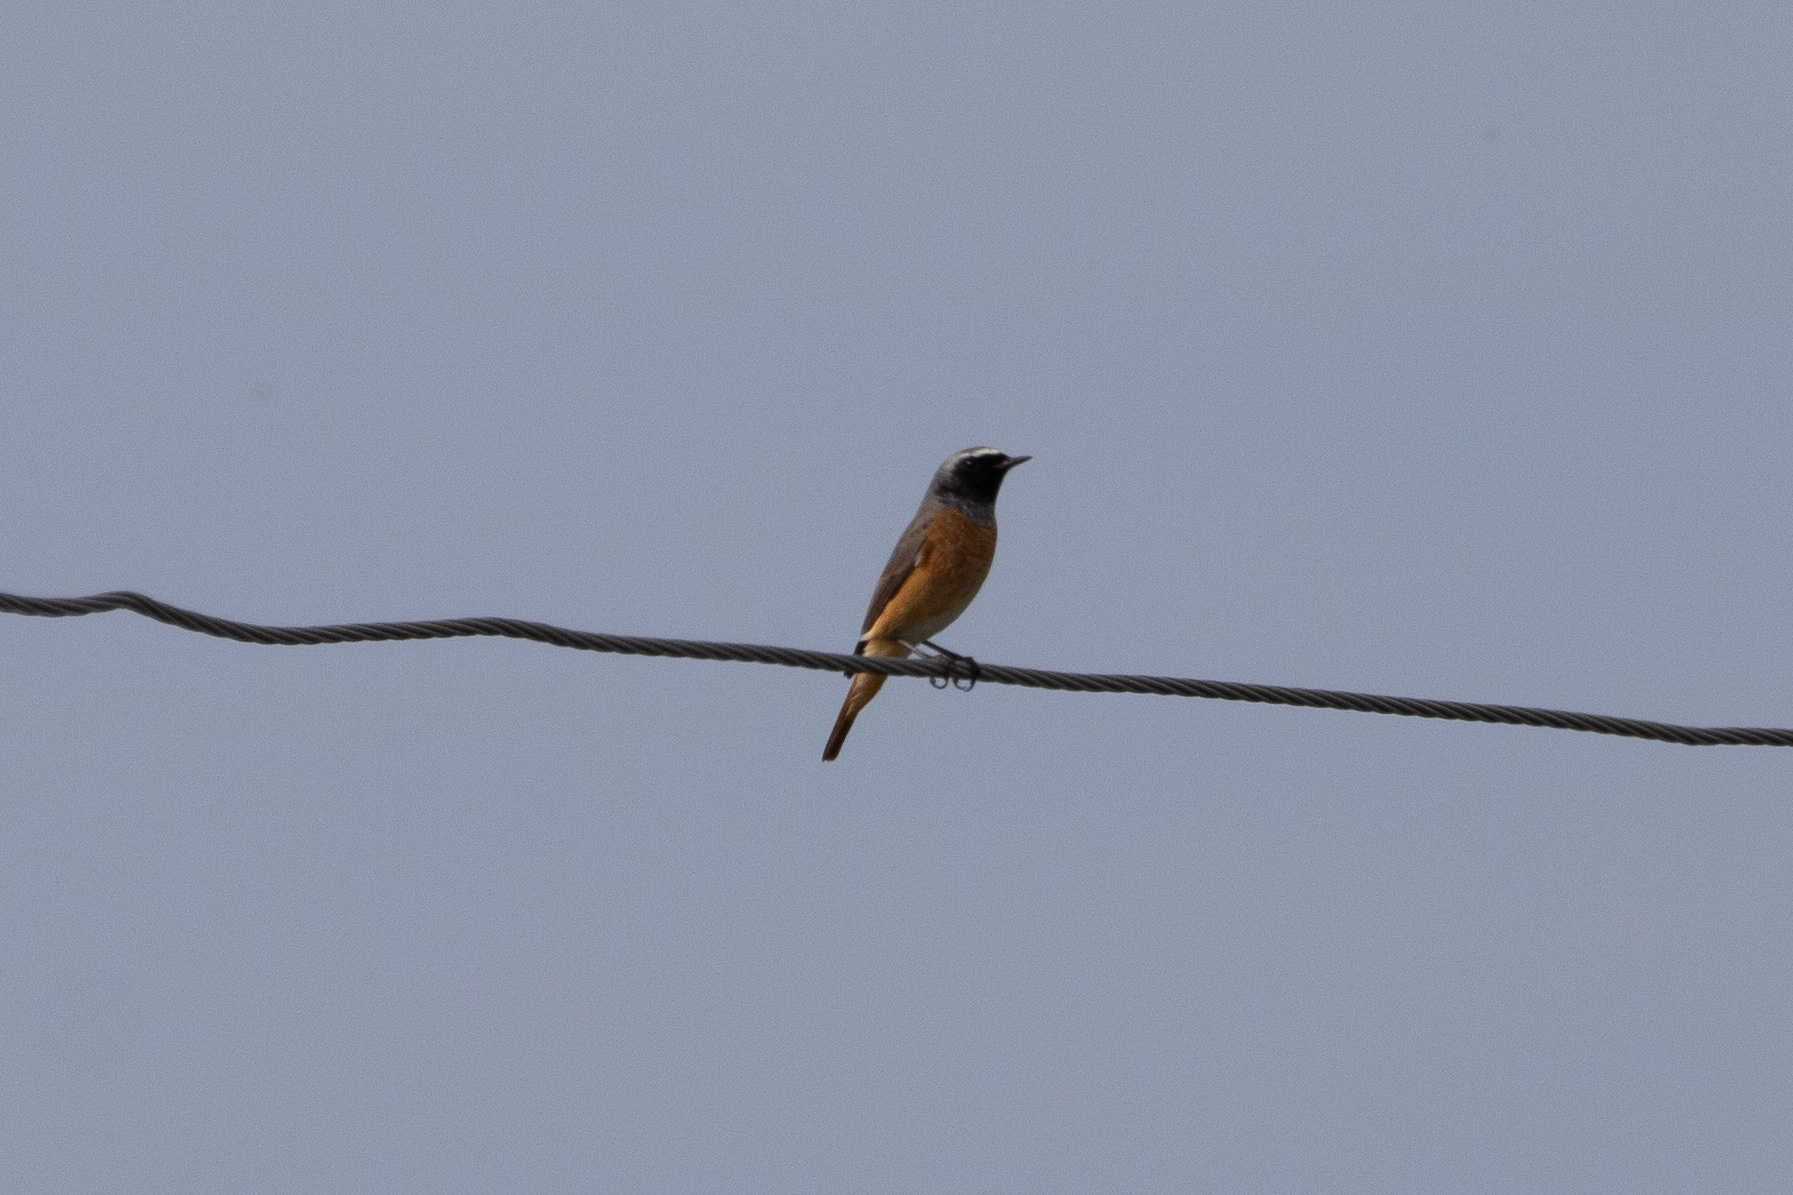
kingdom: Animalia
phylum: Chordata
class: Aves
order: Passeriformes
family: Muscicapidae
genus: Phoenicurus
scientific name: Phoenicurus phoenicurus
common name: Common redstart
